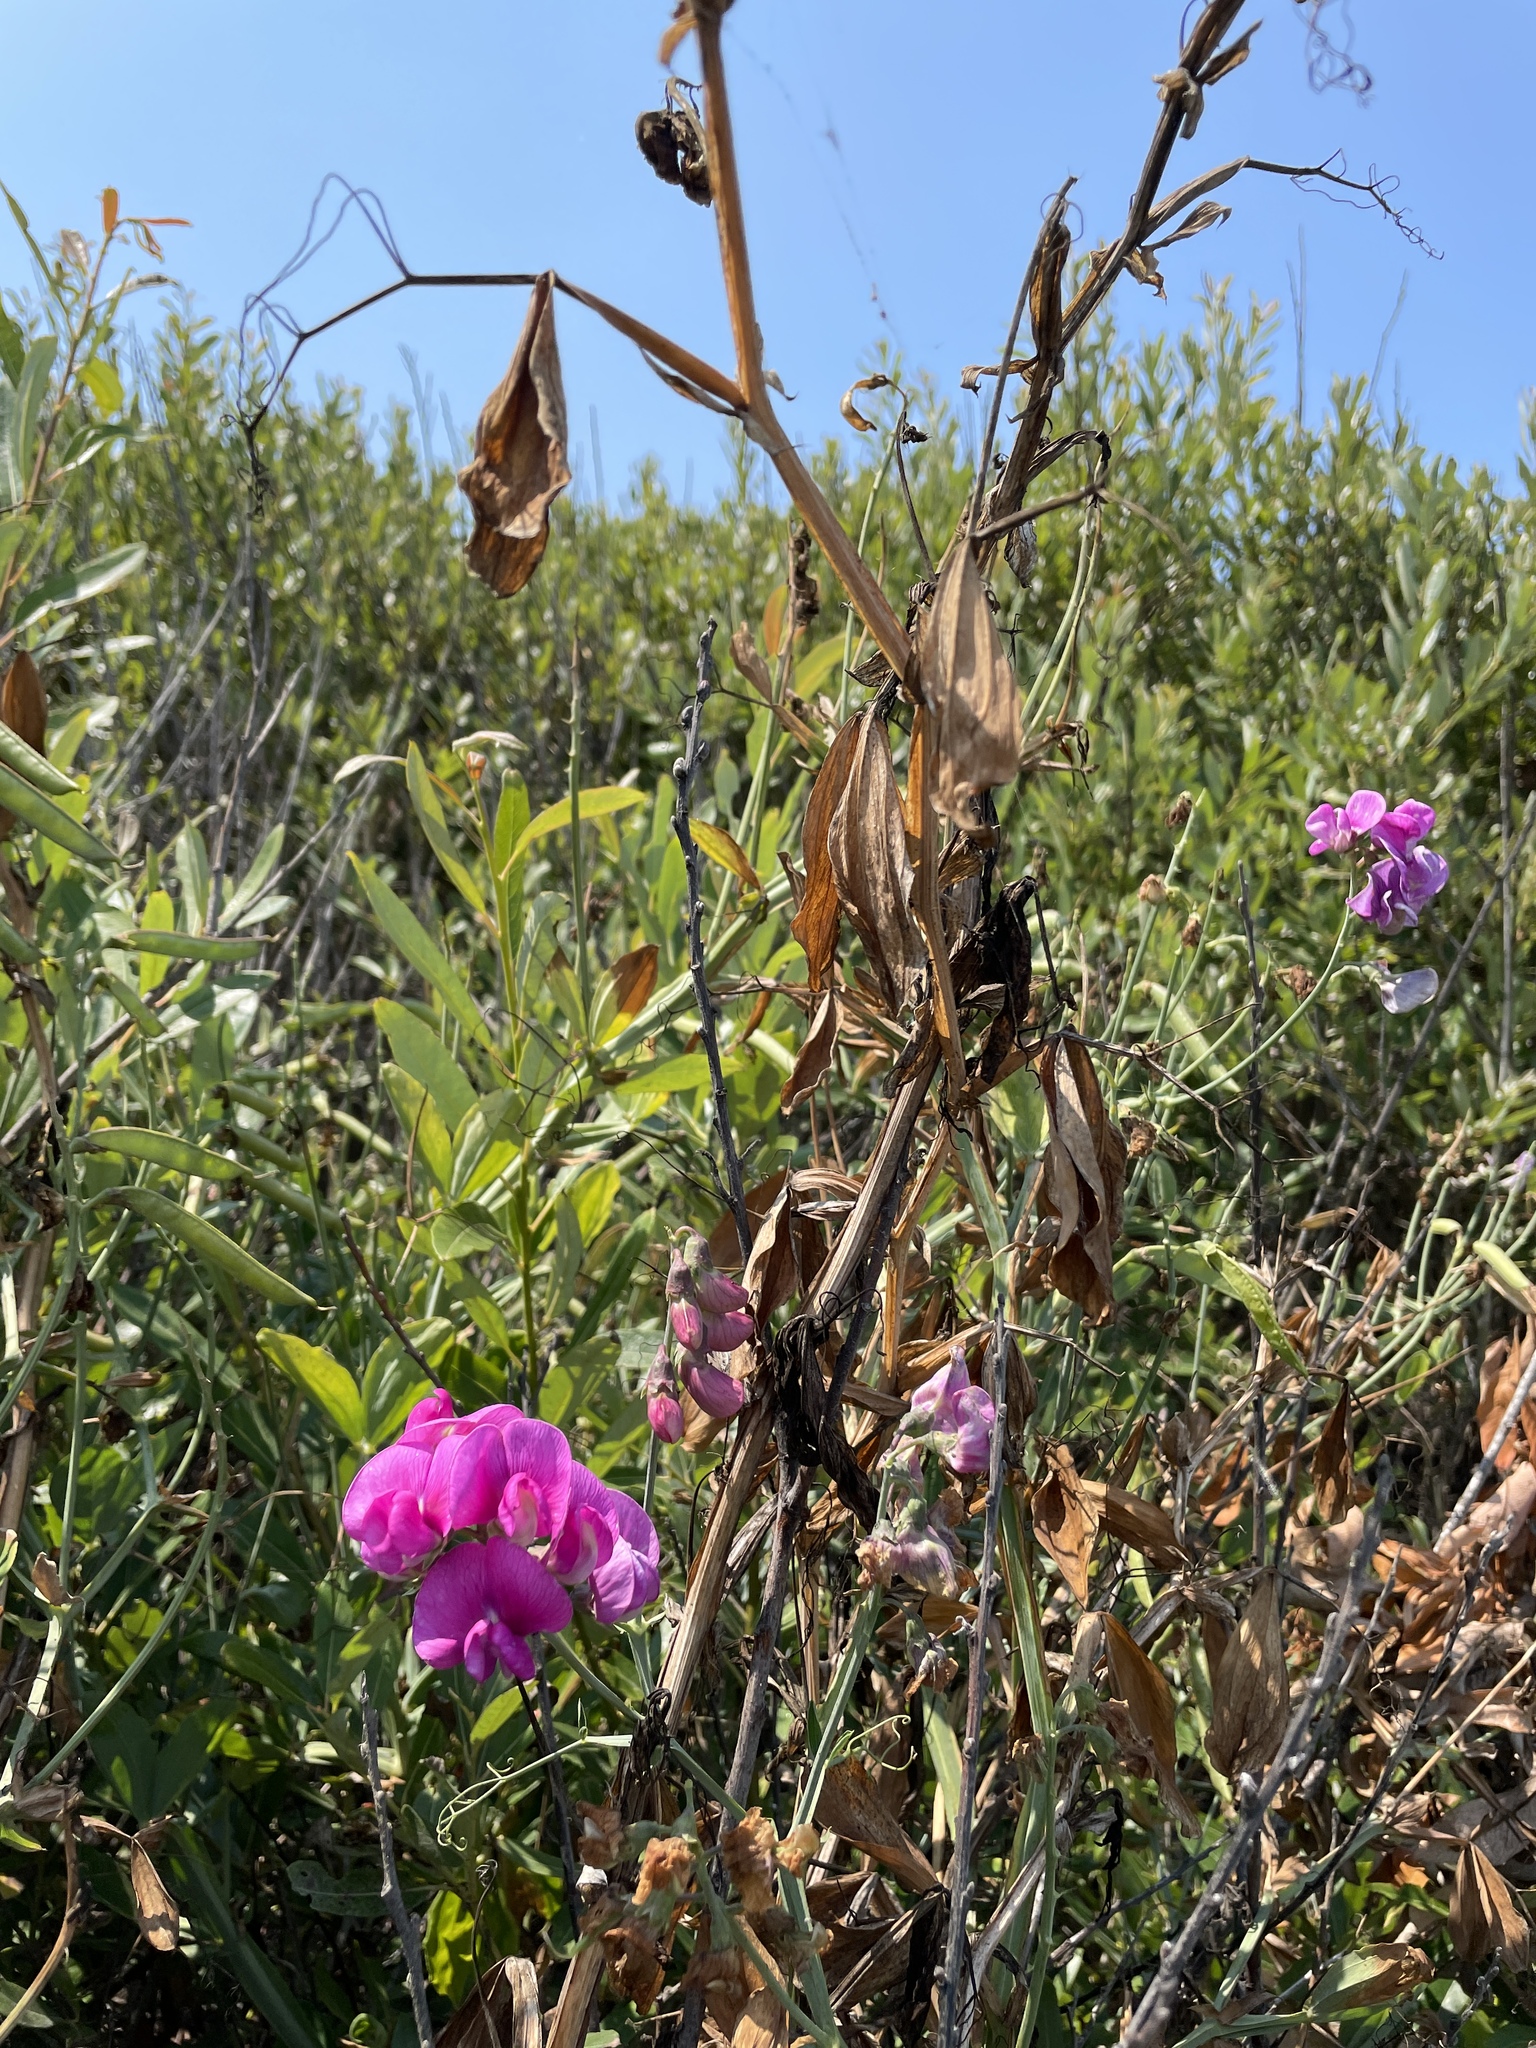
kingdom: Plantae
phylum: Tracheophyta
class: Magnoliopsida
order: Fabales
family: Fabaceae
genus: Lathyrus
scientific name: Lathyrus latifolius
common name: Perennial pea
